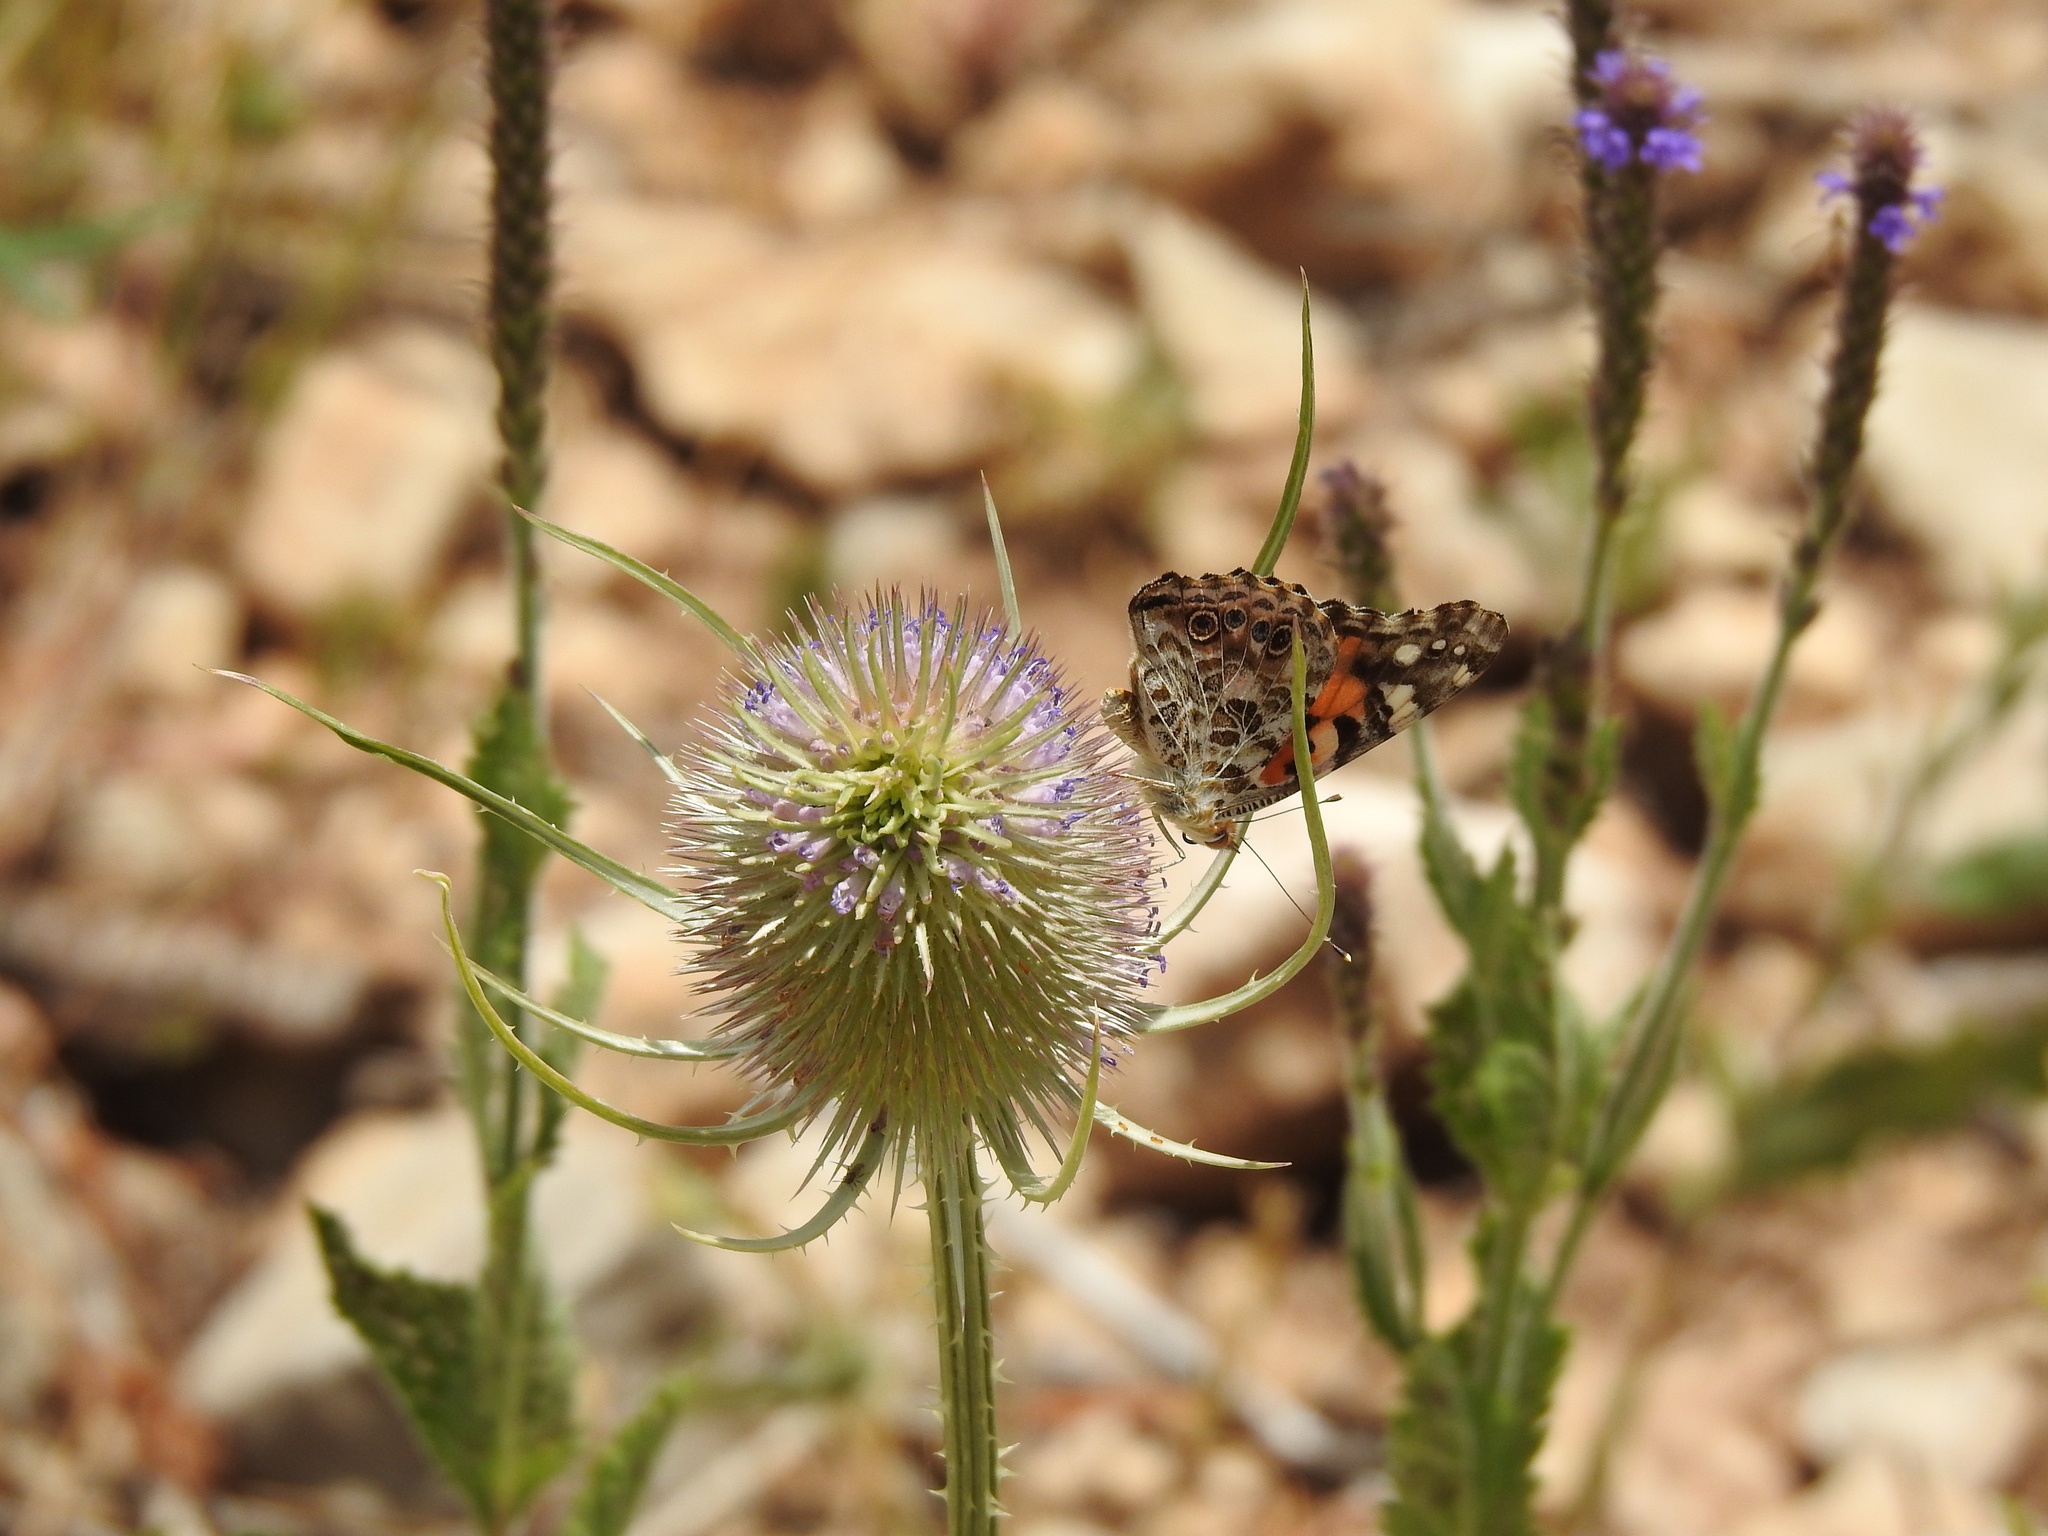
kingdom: Animalia
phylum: Arthropoda
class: Insecta
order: Lepidoptera
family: Nymphalidae
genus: Vanessa
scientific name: Vanessa cardui
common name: Painted lady
